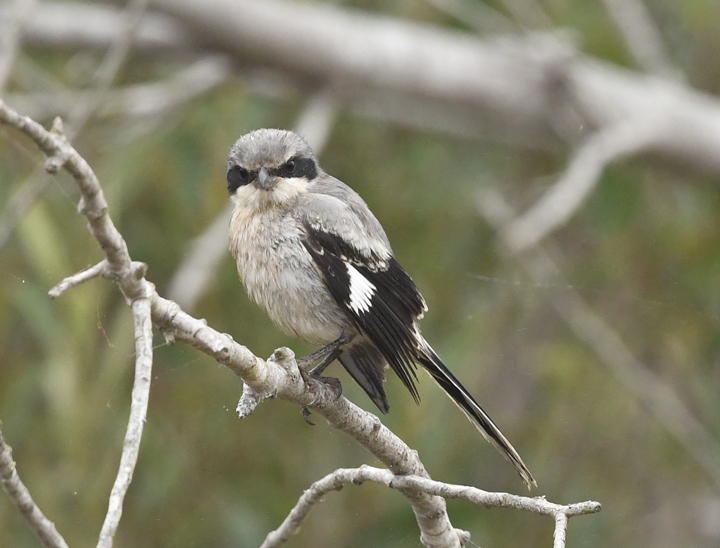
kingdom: Animalia
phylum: Chordata
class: Aves
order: Passeriformes
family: Laniidae
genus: Lanius
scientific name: Lanius ludovicianus
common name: Loggerhead shrike
